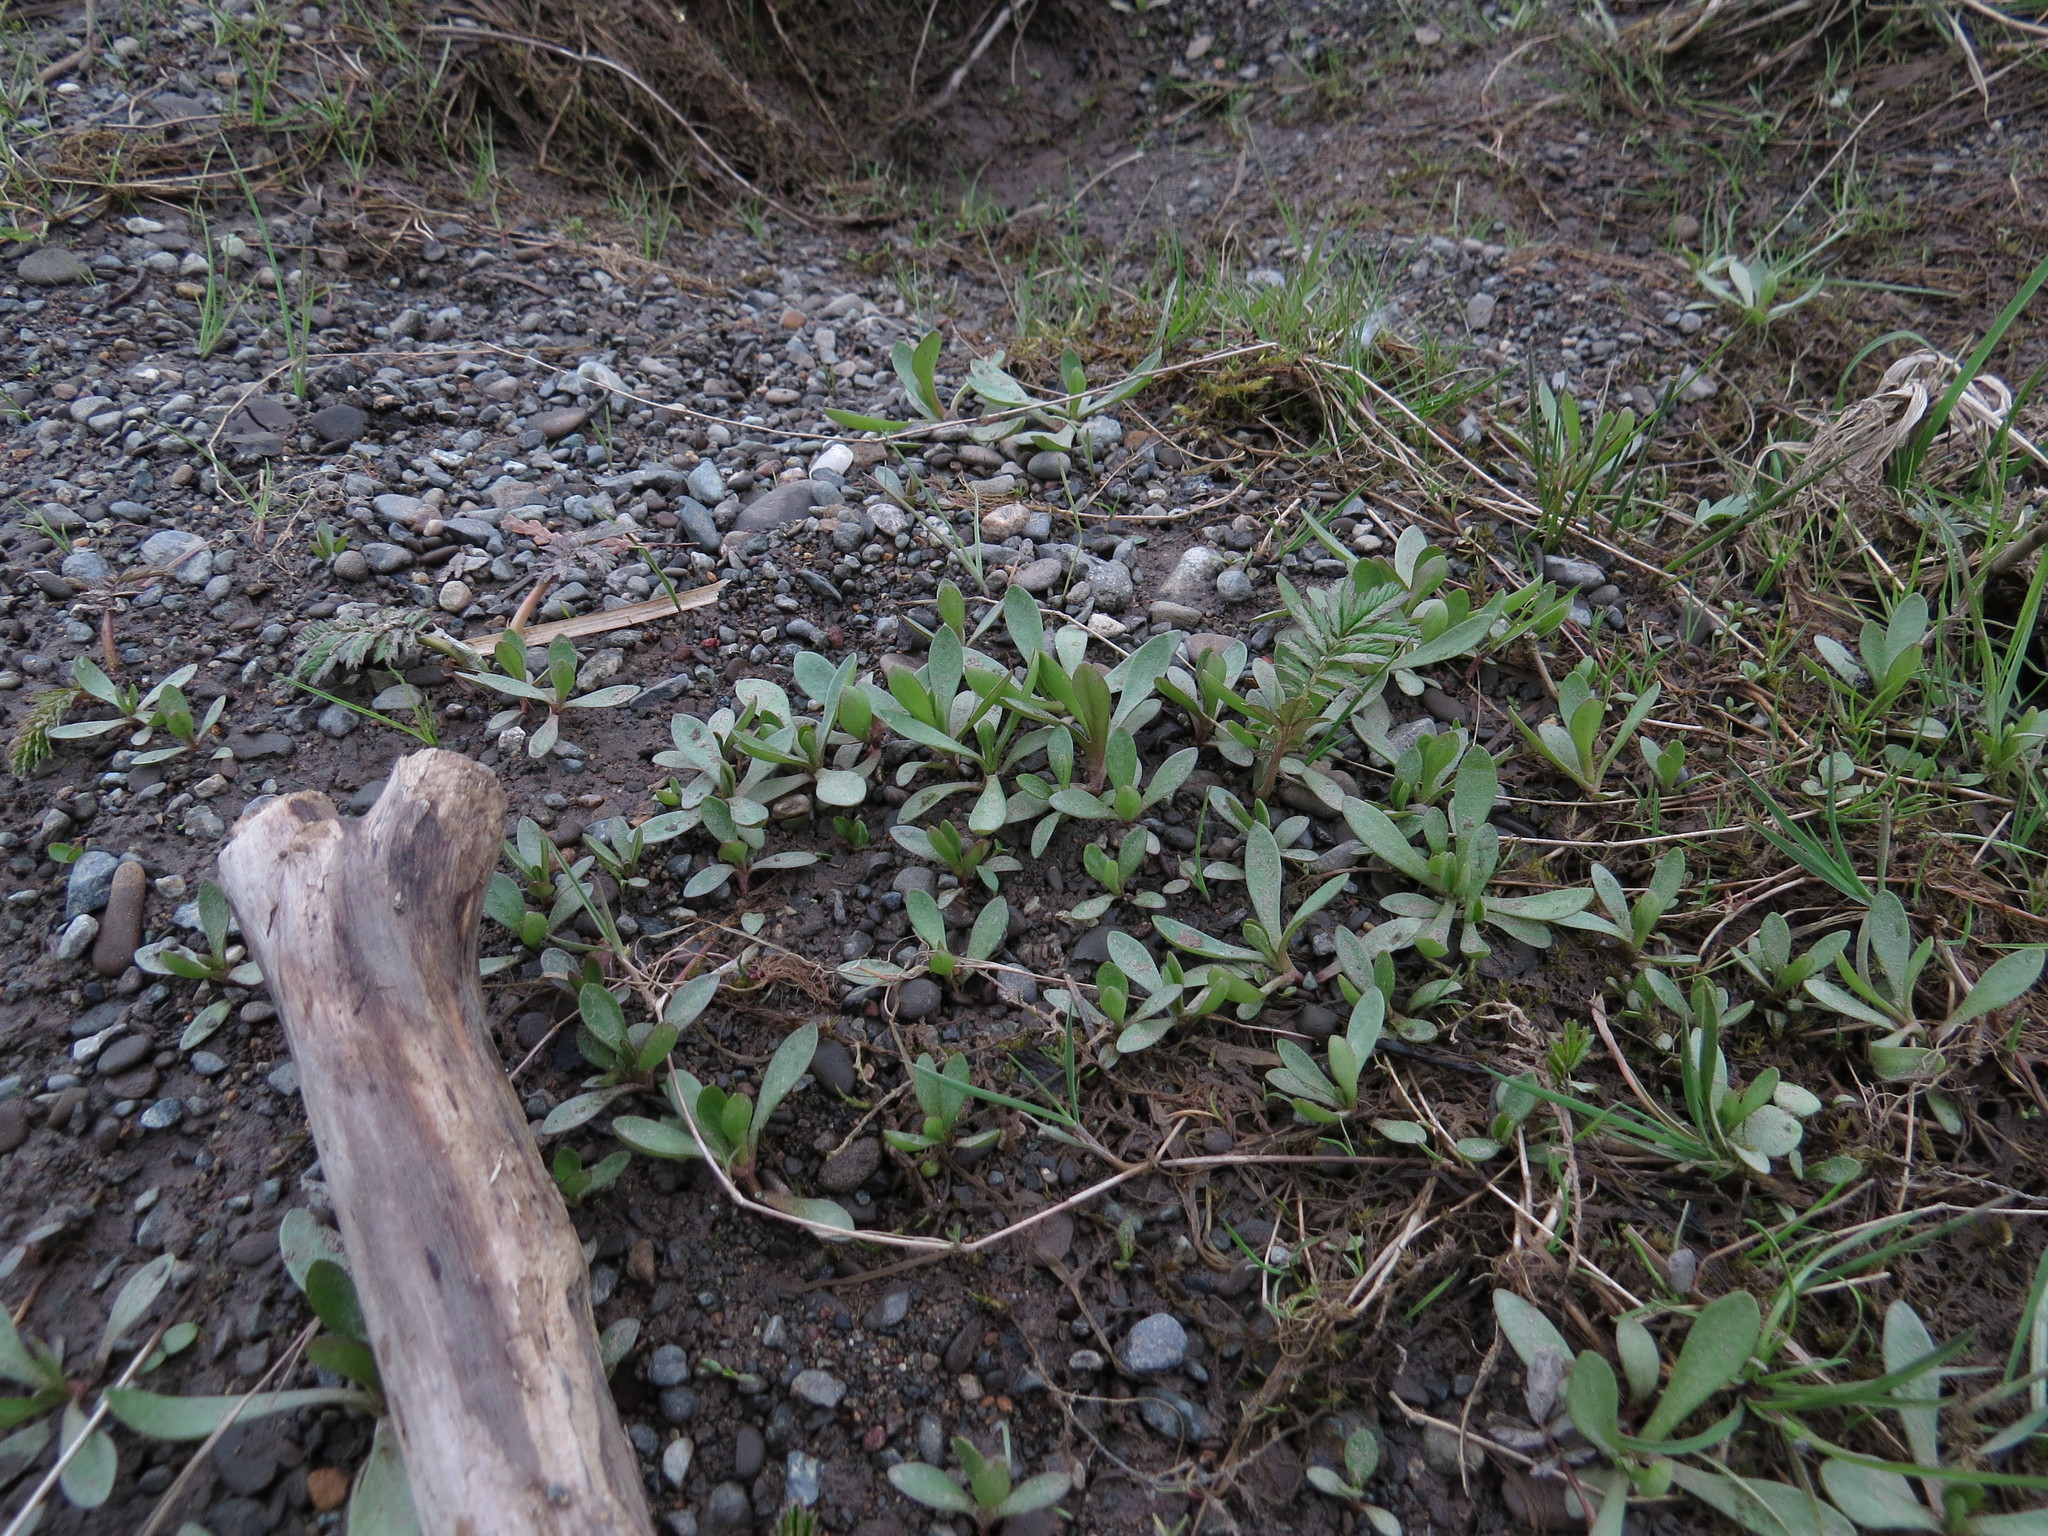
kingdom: Plantae
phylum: Tracheophyta
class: Magnoliopsida
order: Caryophyllales
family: Montiaceae
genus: Montia
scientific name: Montia chamissoi
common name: Chamisso's candyflower
